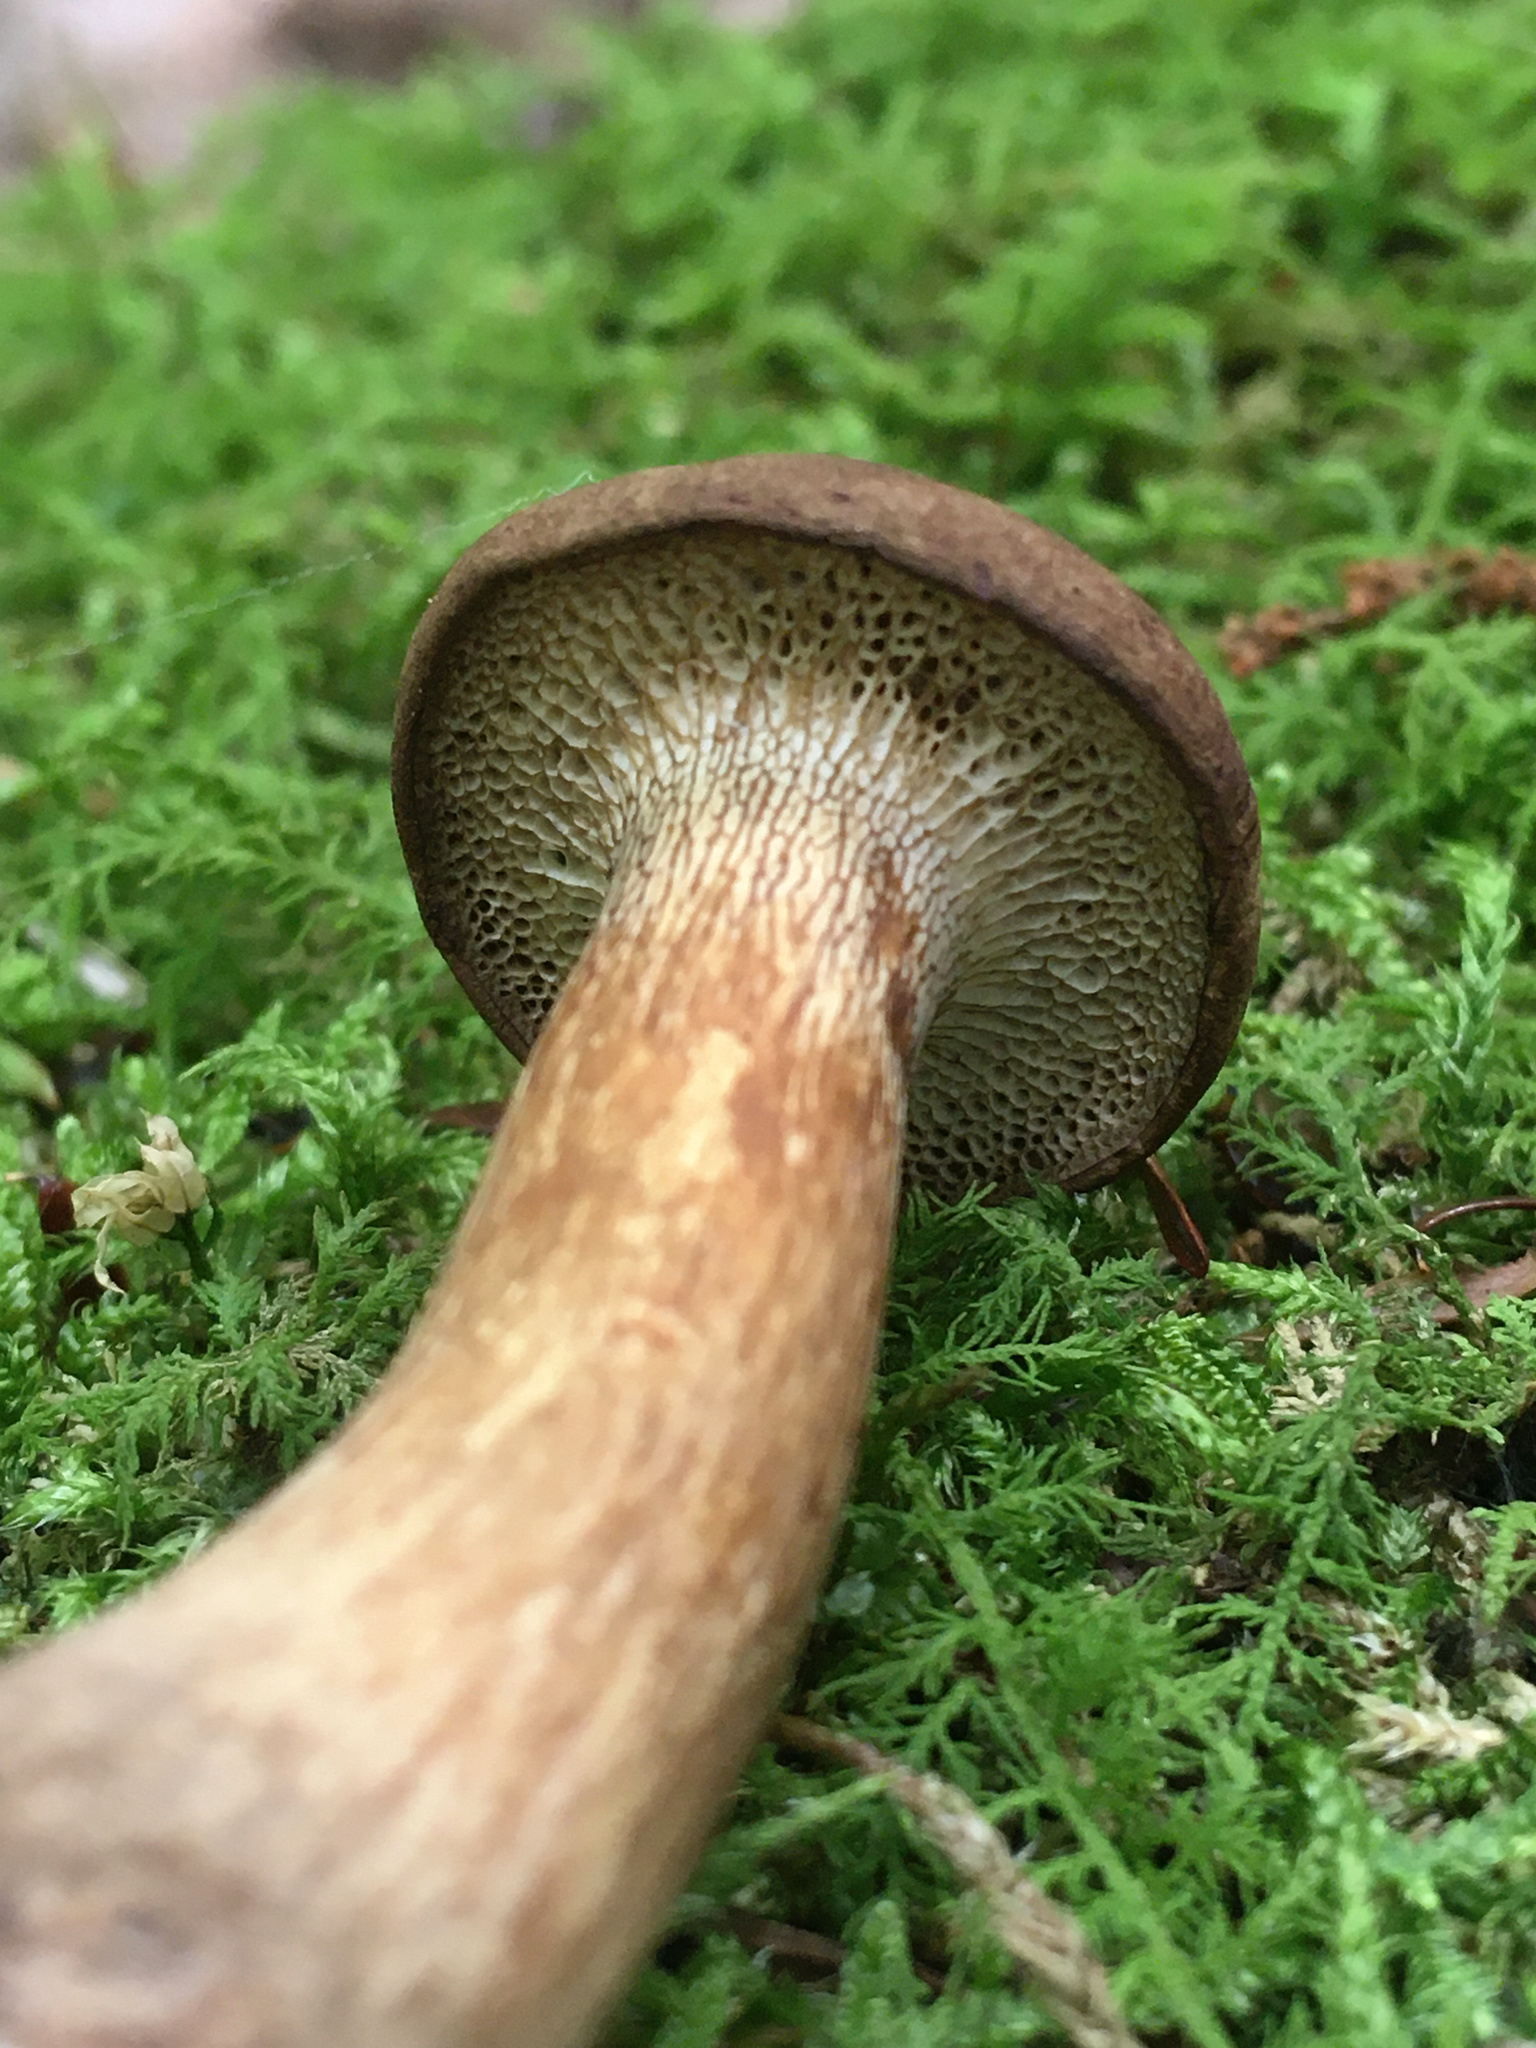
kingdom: Fungi
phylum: Basidiomycota
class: Agaricomycetes
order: Boletales
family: Boletaceae
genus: Bothia
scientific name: Bothia castanella
